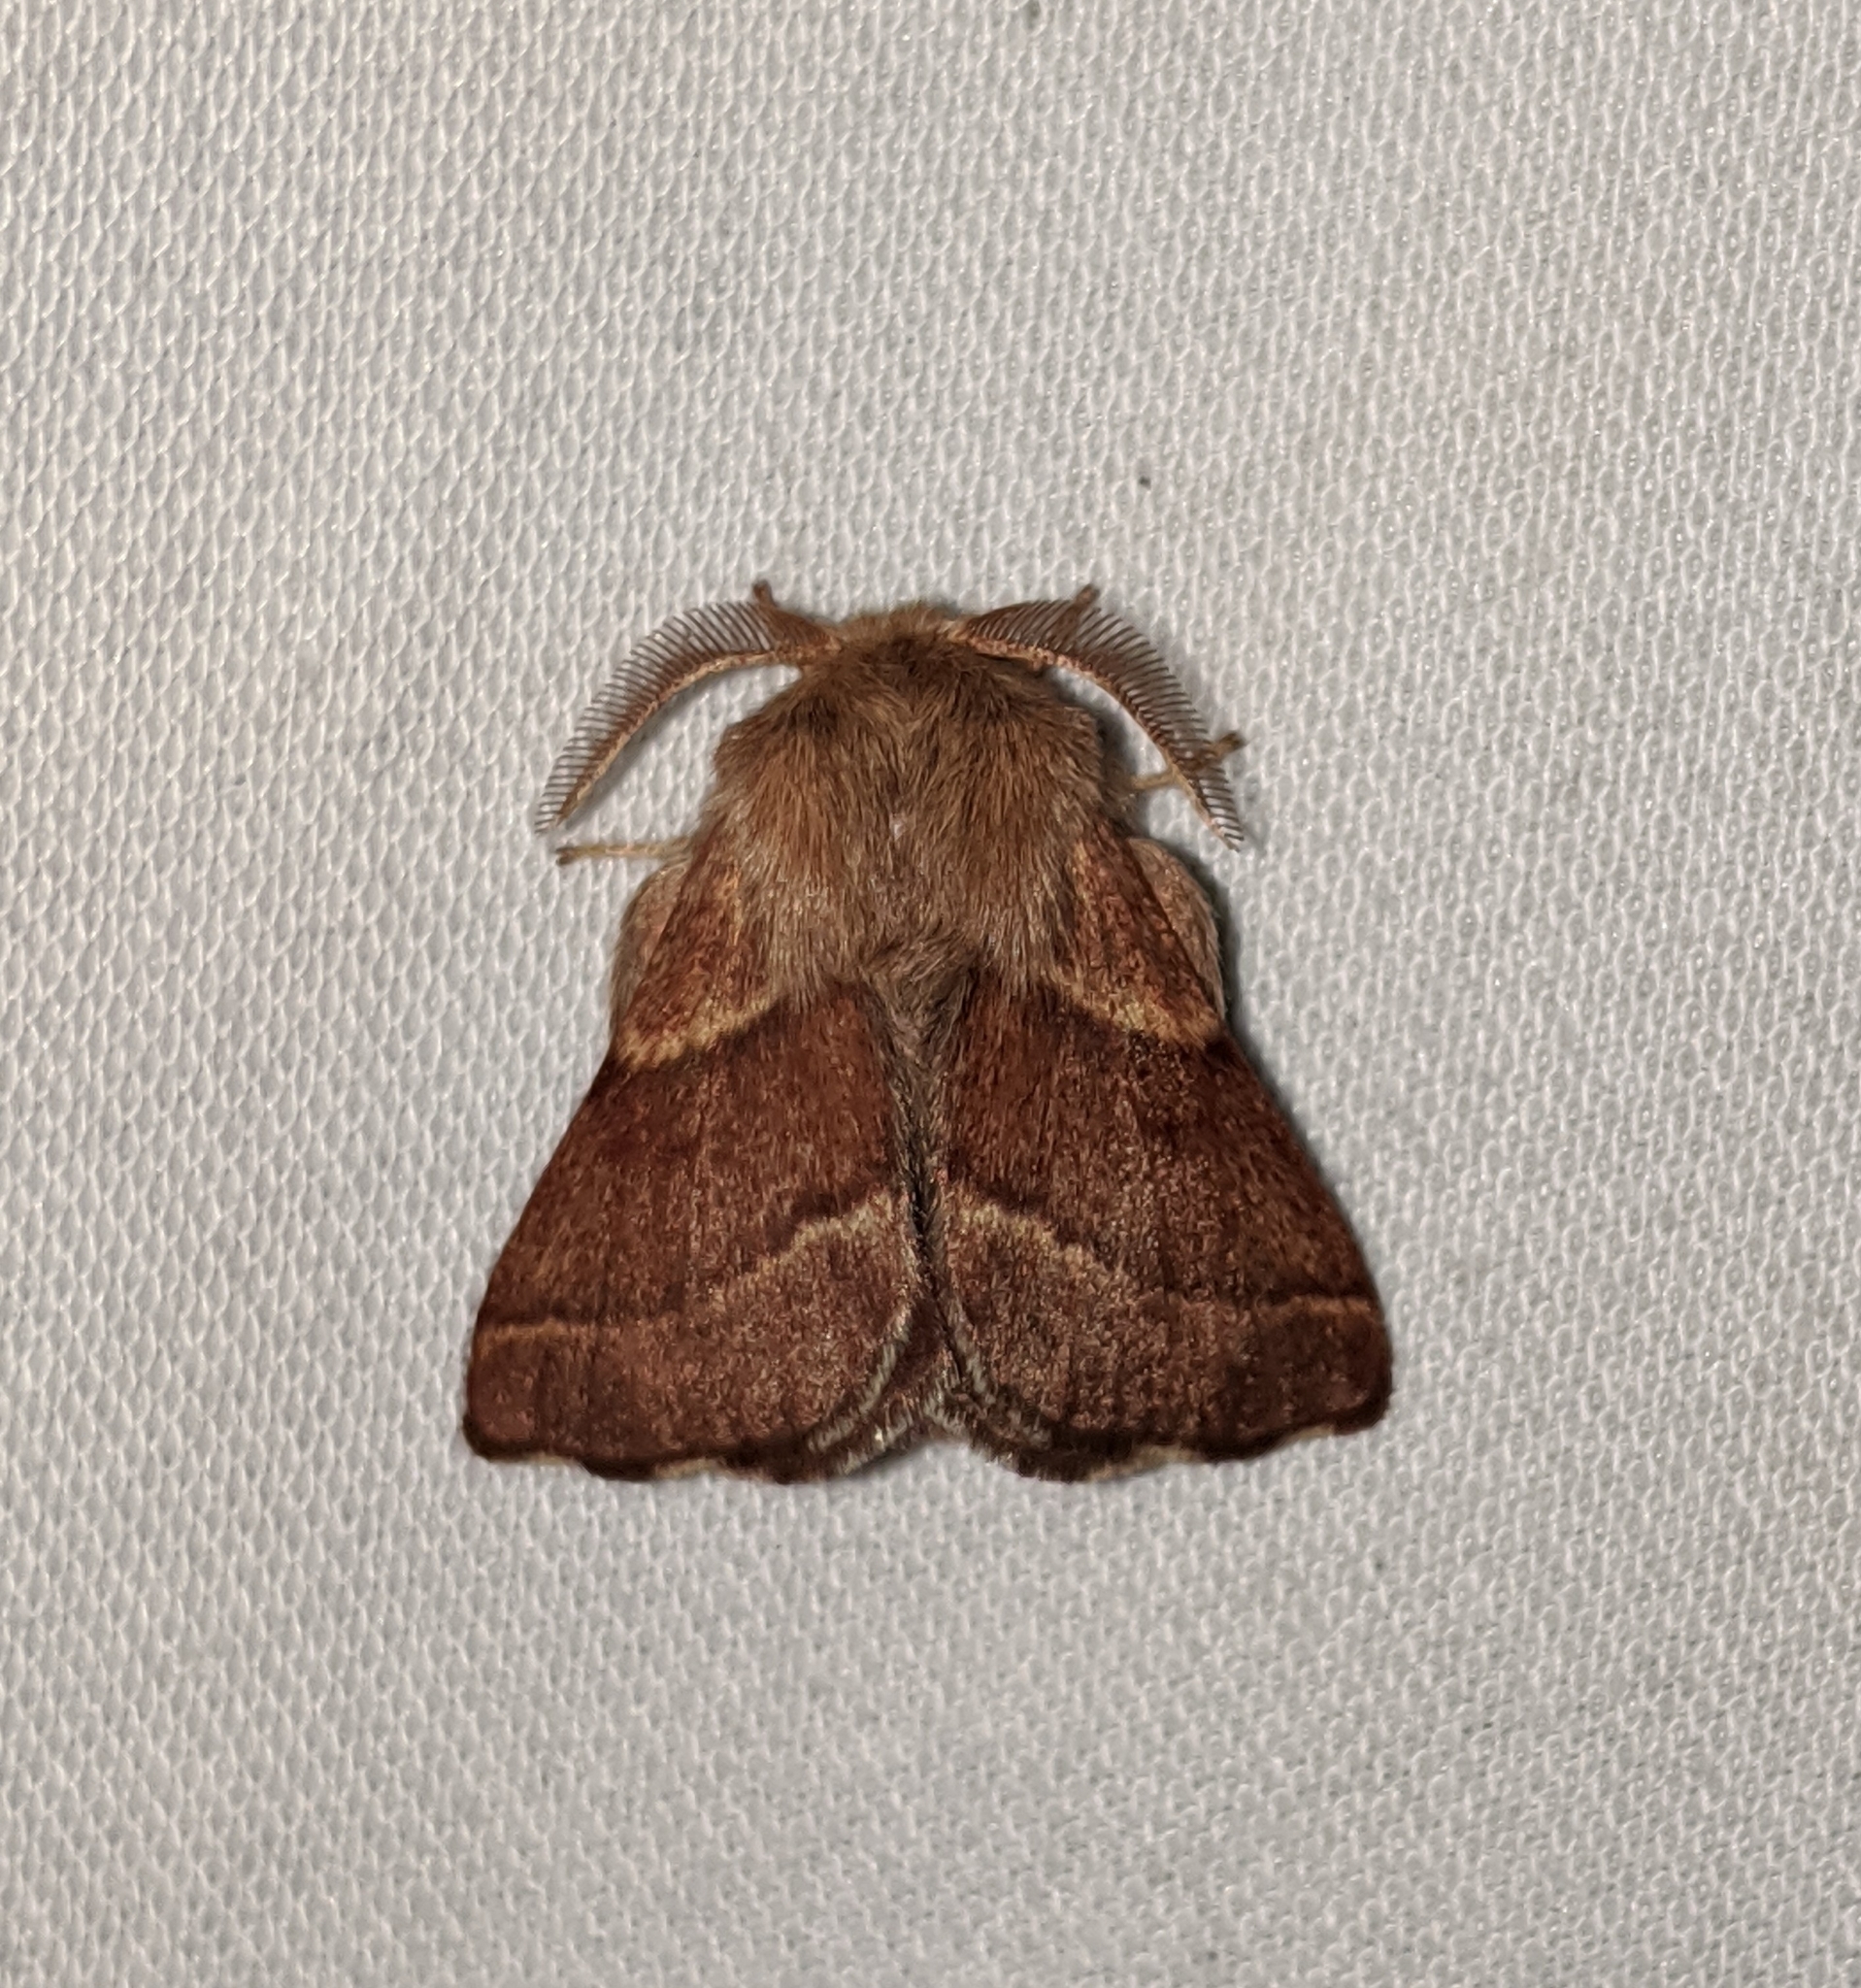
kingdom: Animalia
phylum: Arthropoda
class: Insecta
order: Lepidoptera
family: Lasiocampidae
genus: Malacosoma
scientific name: Malacosoma californica
